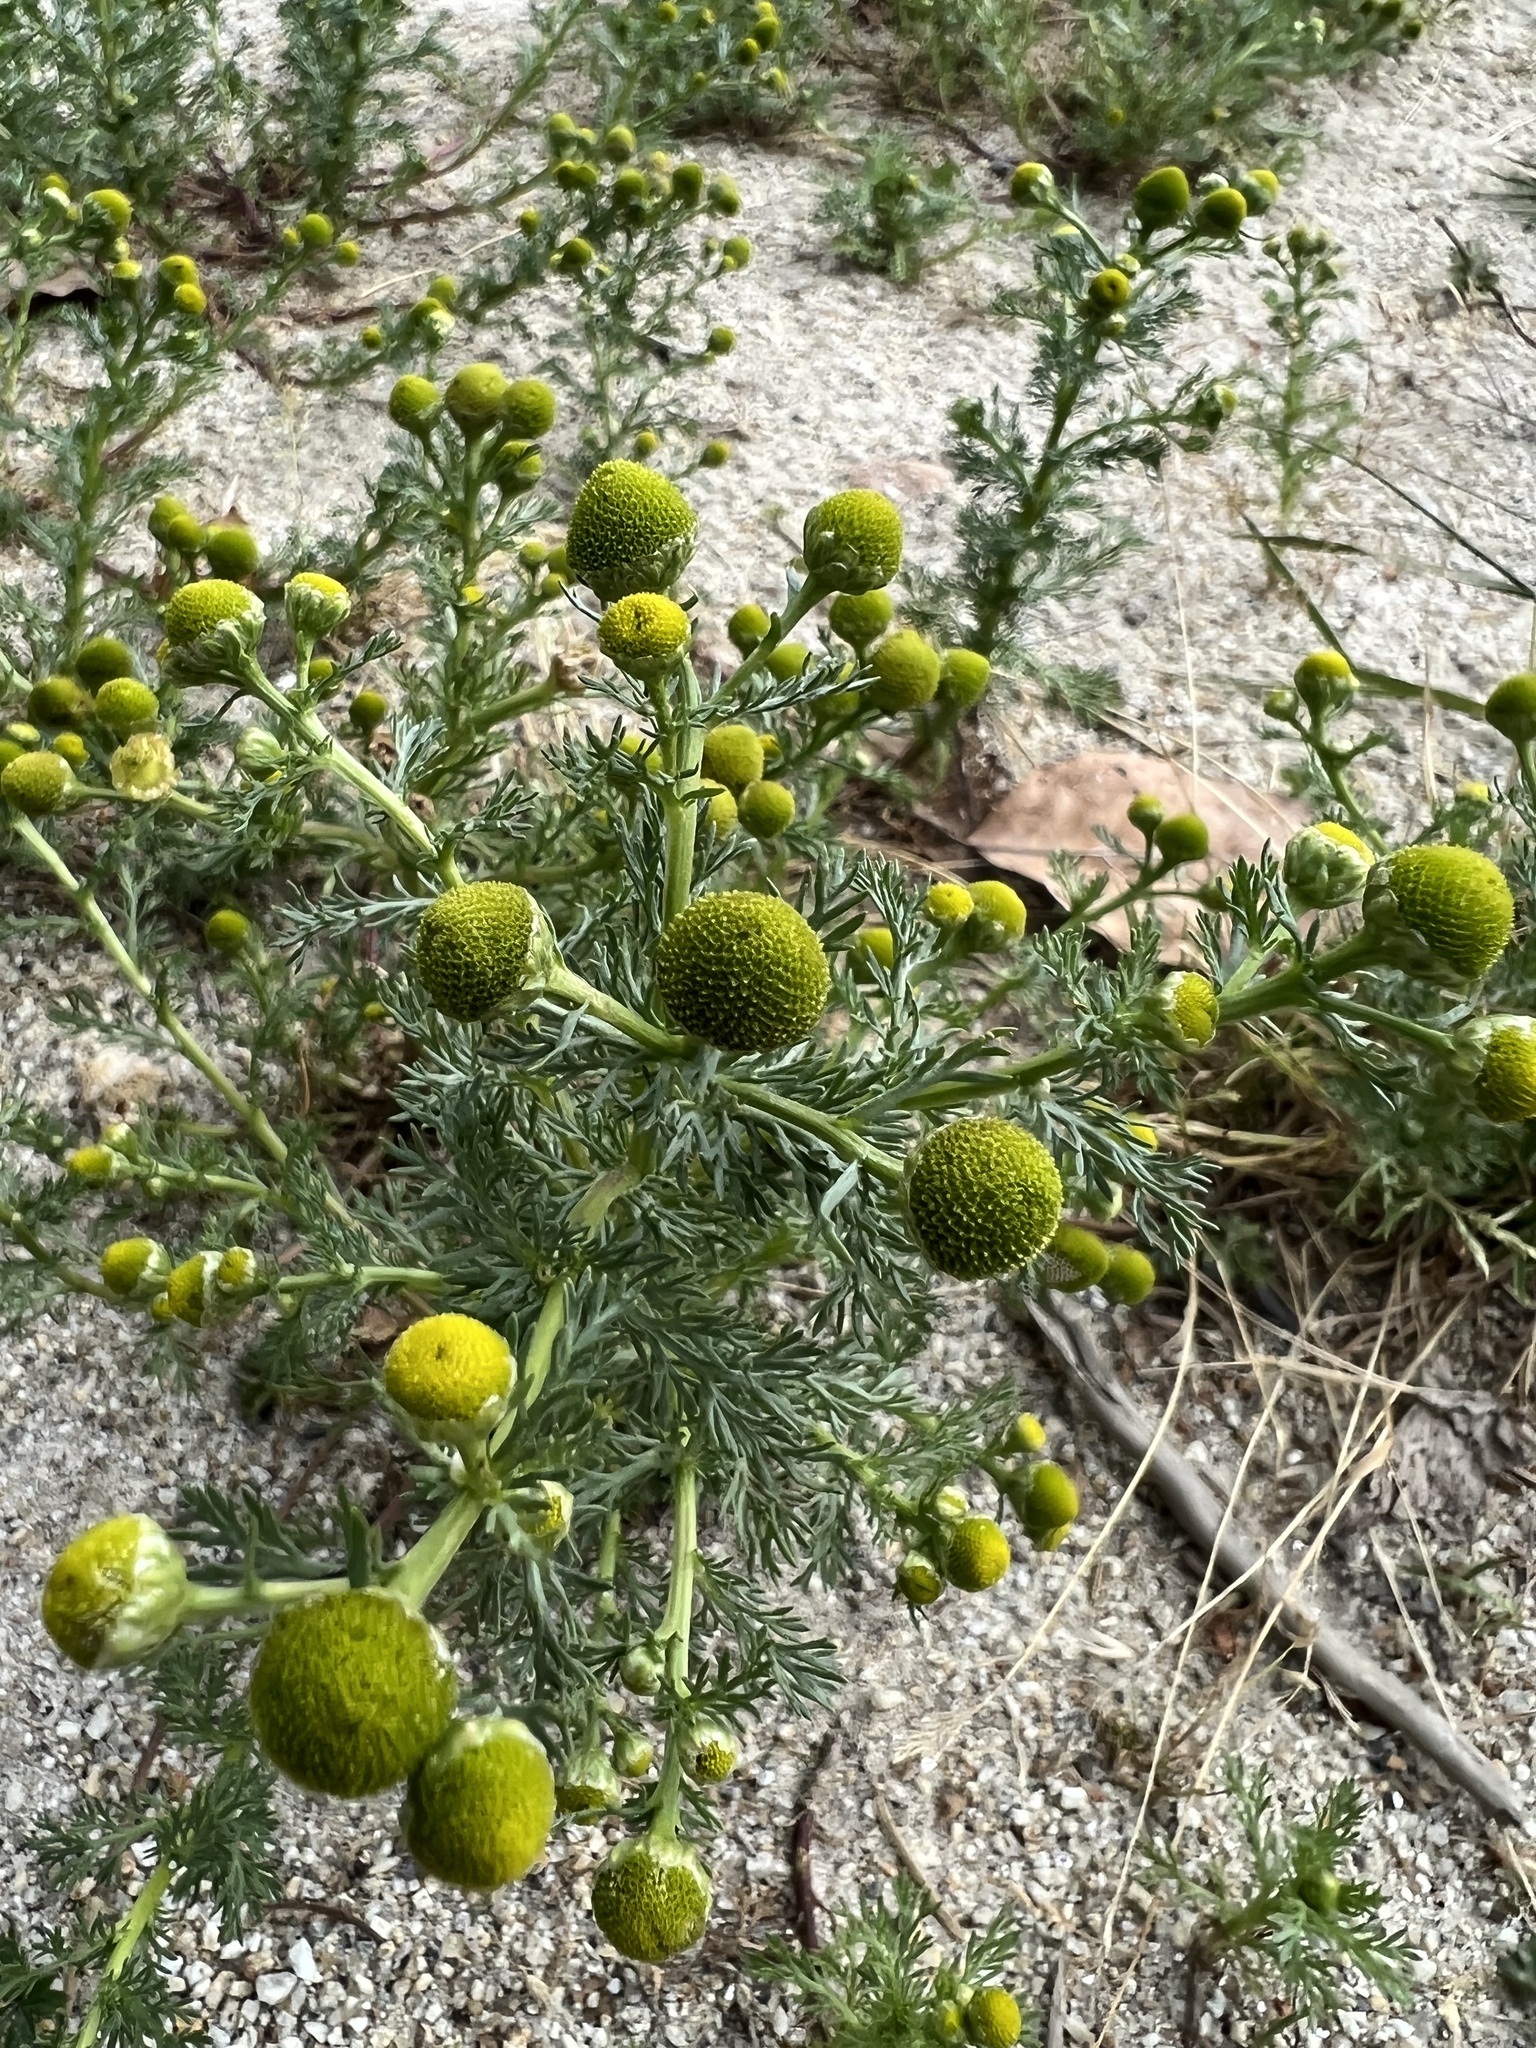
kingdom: Plantae
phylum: Tracheophyta
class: Magnoliopsida
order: Asterales
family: Asteraceae
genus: Matricaria
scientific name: Matricaria discoidea
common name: Disc mayweed
